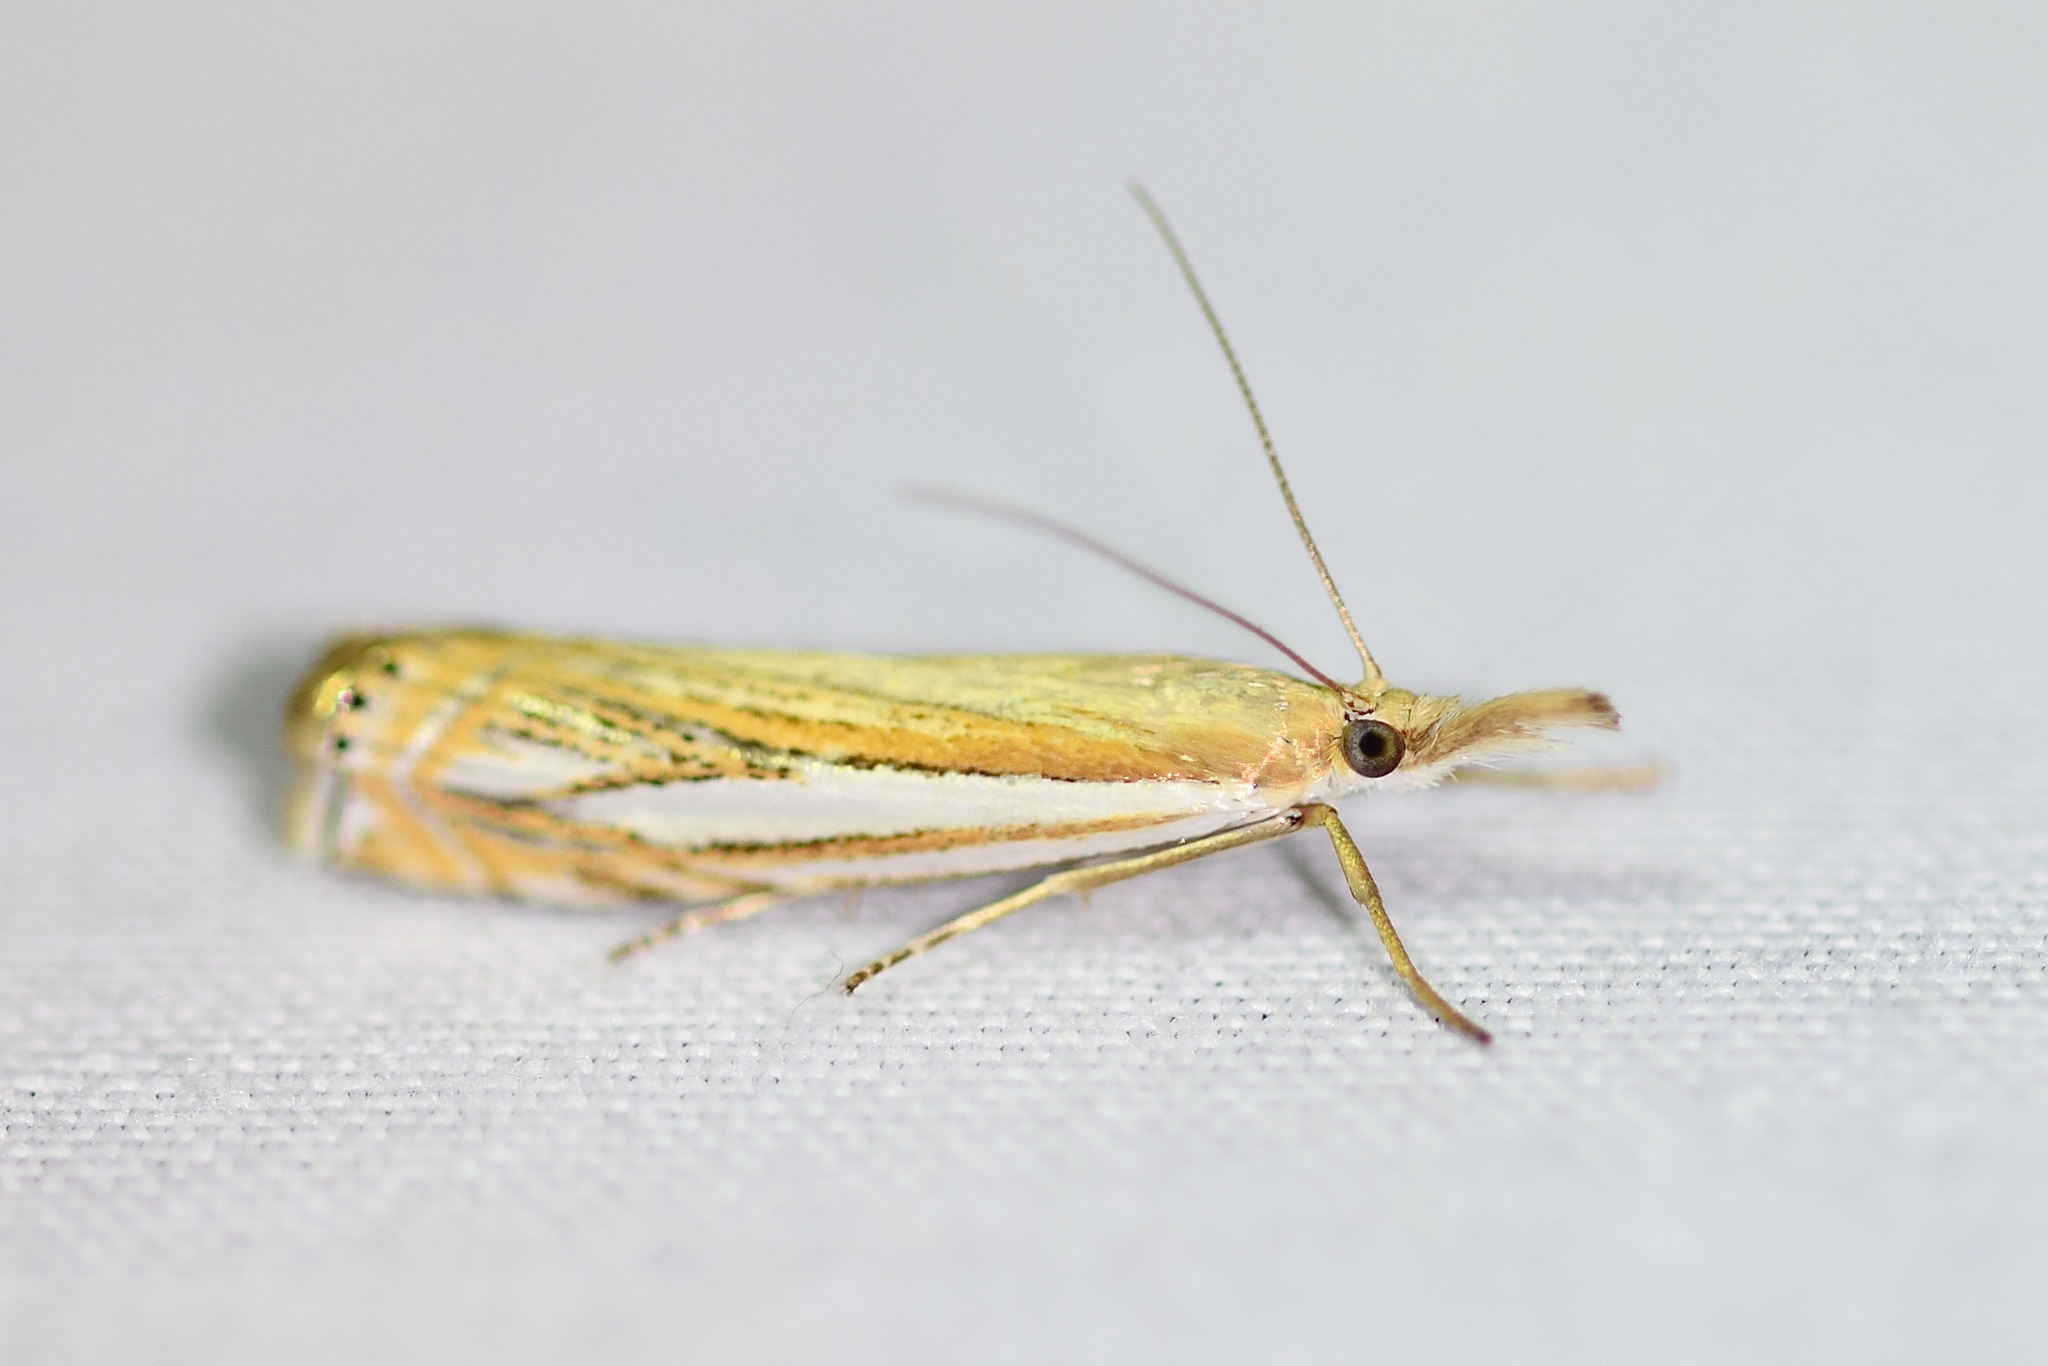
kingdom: Animalia
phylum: Arthropoda
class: Insecta
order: Lepidoptera
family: Crambidae
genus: Crambus
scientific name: Crambus saltuellus
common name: Pasture grass-veneer
